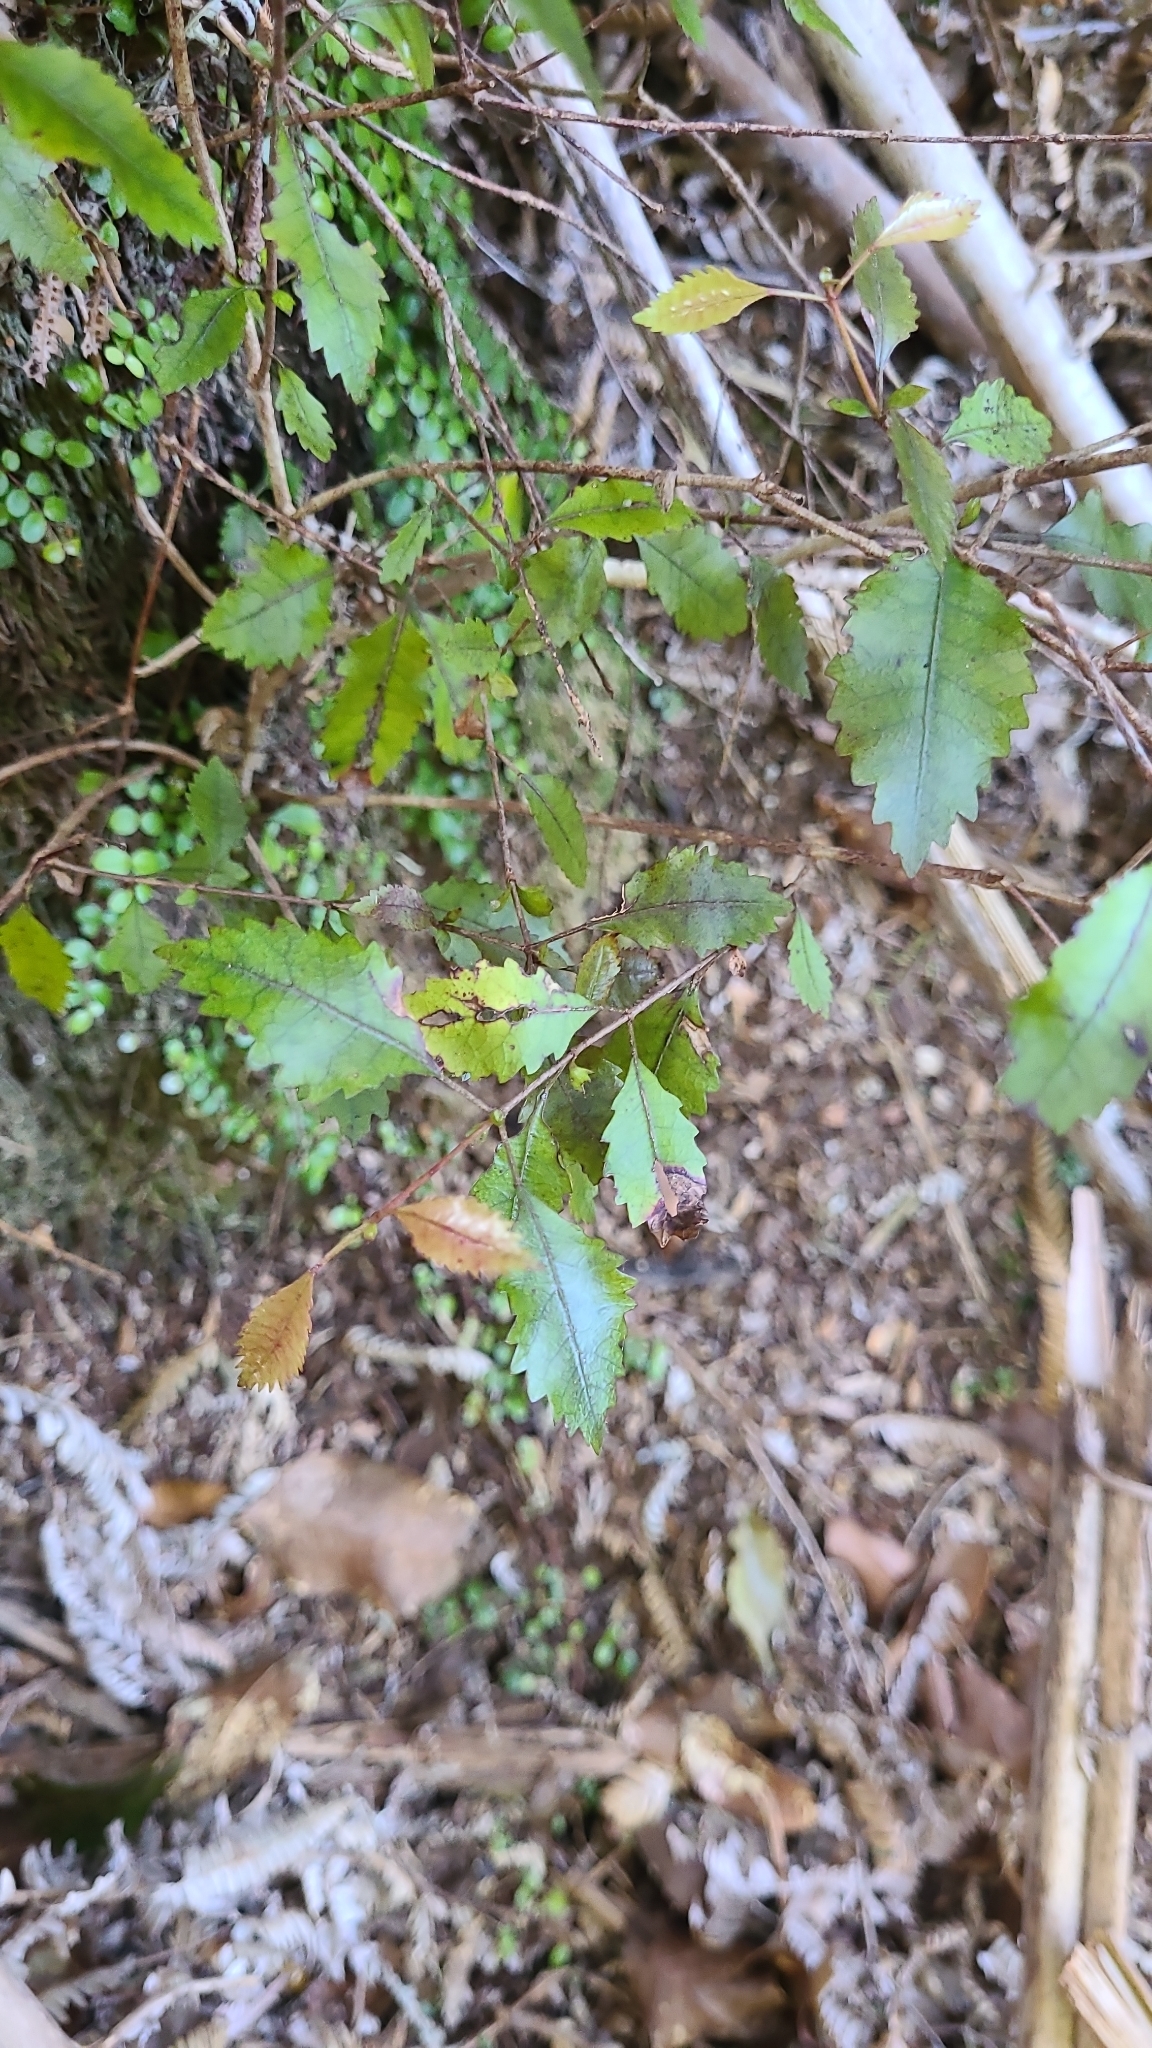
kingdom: Plantae
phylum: Tracheophyta
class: Magnoliopsida
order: Oxalidales
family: Cunoniaceae
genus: Pterophylla
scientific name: Pterophylla racemosa
